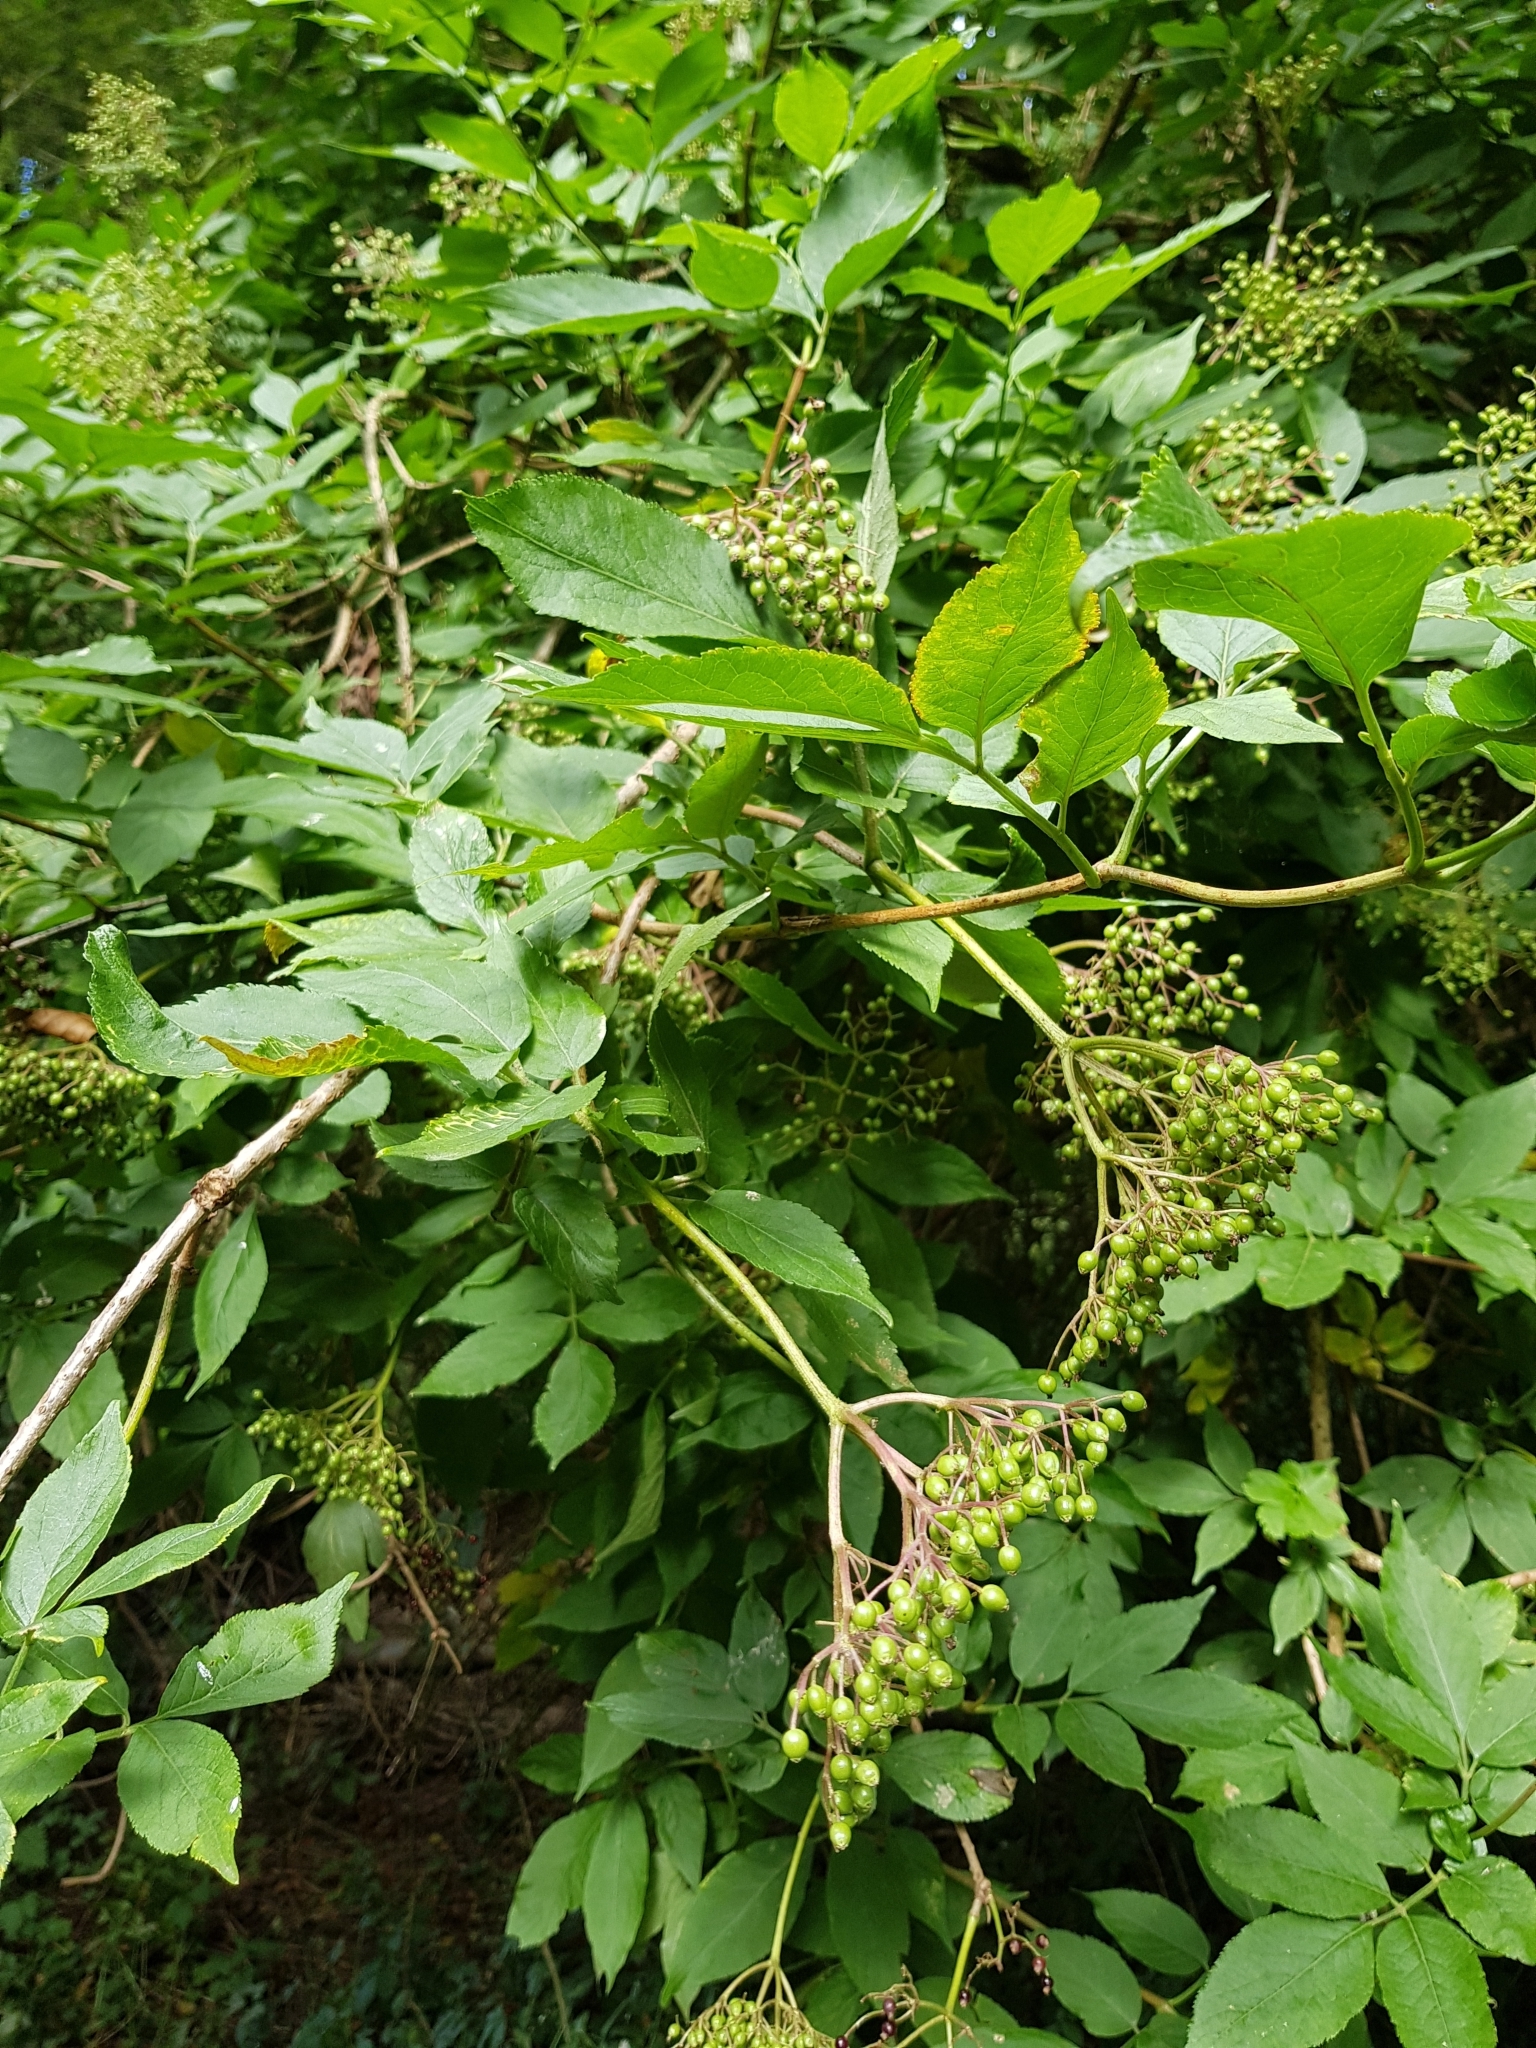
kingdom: Plantae
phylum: Tracheophyta
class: Magnoliopsida
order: Dipsacales
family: Viburnaceae
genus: Sambucus
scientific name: Sambucus nigra
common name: Elder
